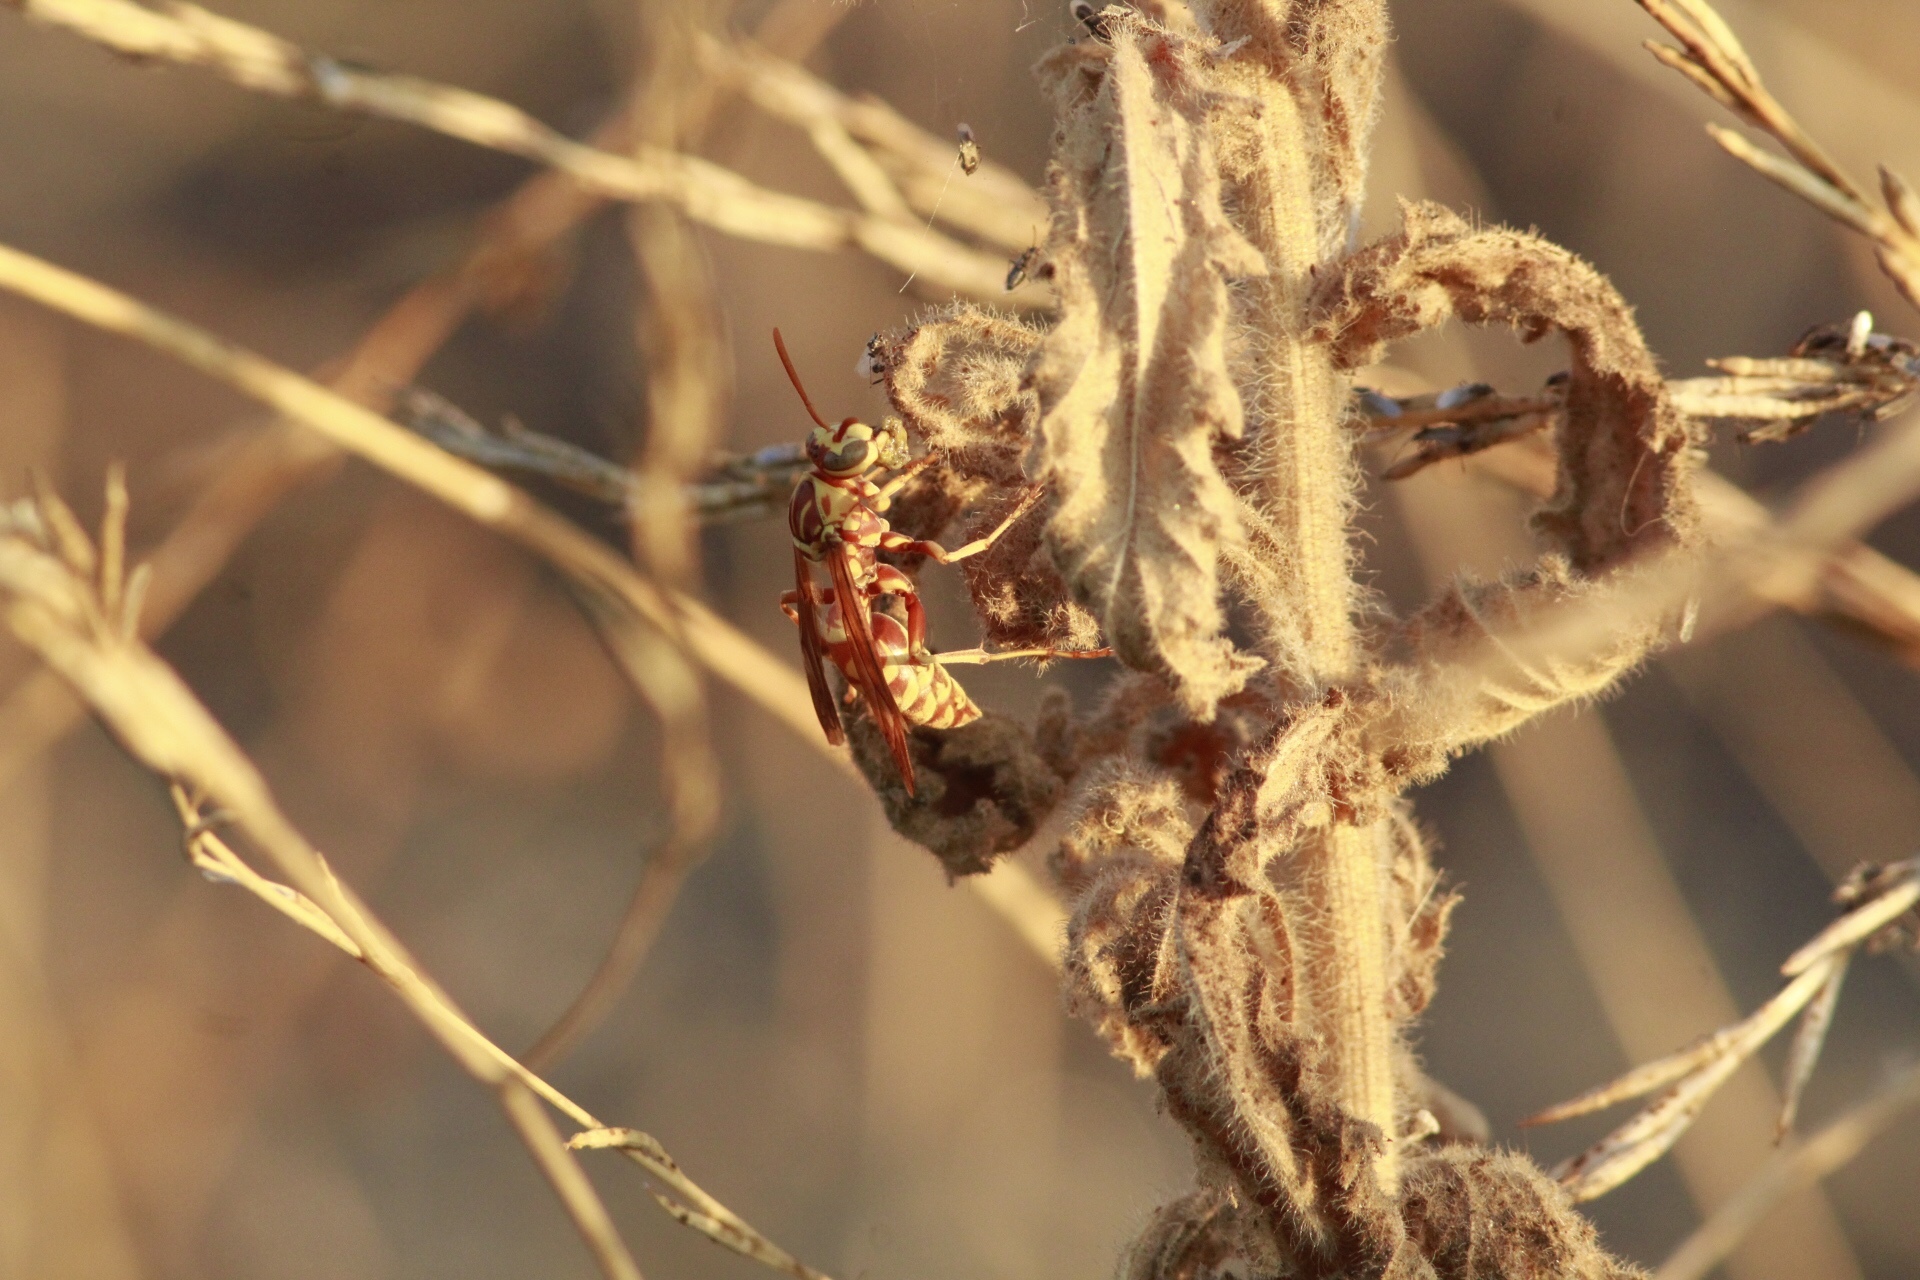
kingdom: Animalia
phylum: Arthropoda
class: Insecta
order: Hymenoptera
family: Eumenidae
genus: Polistes
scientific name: Polistes apachus
